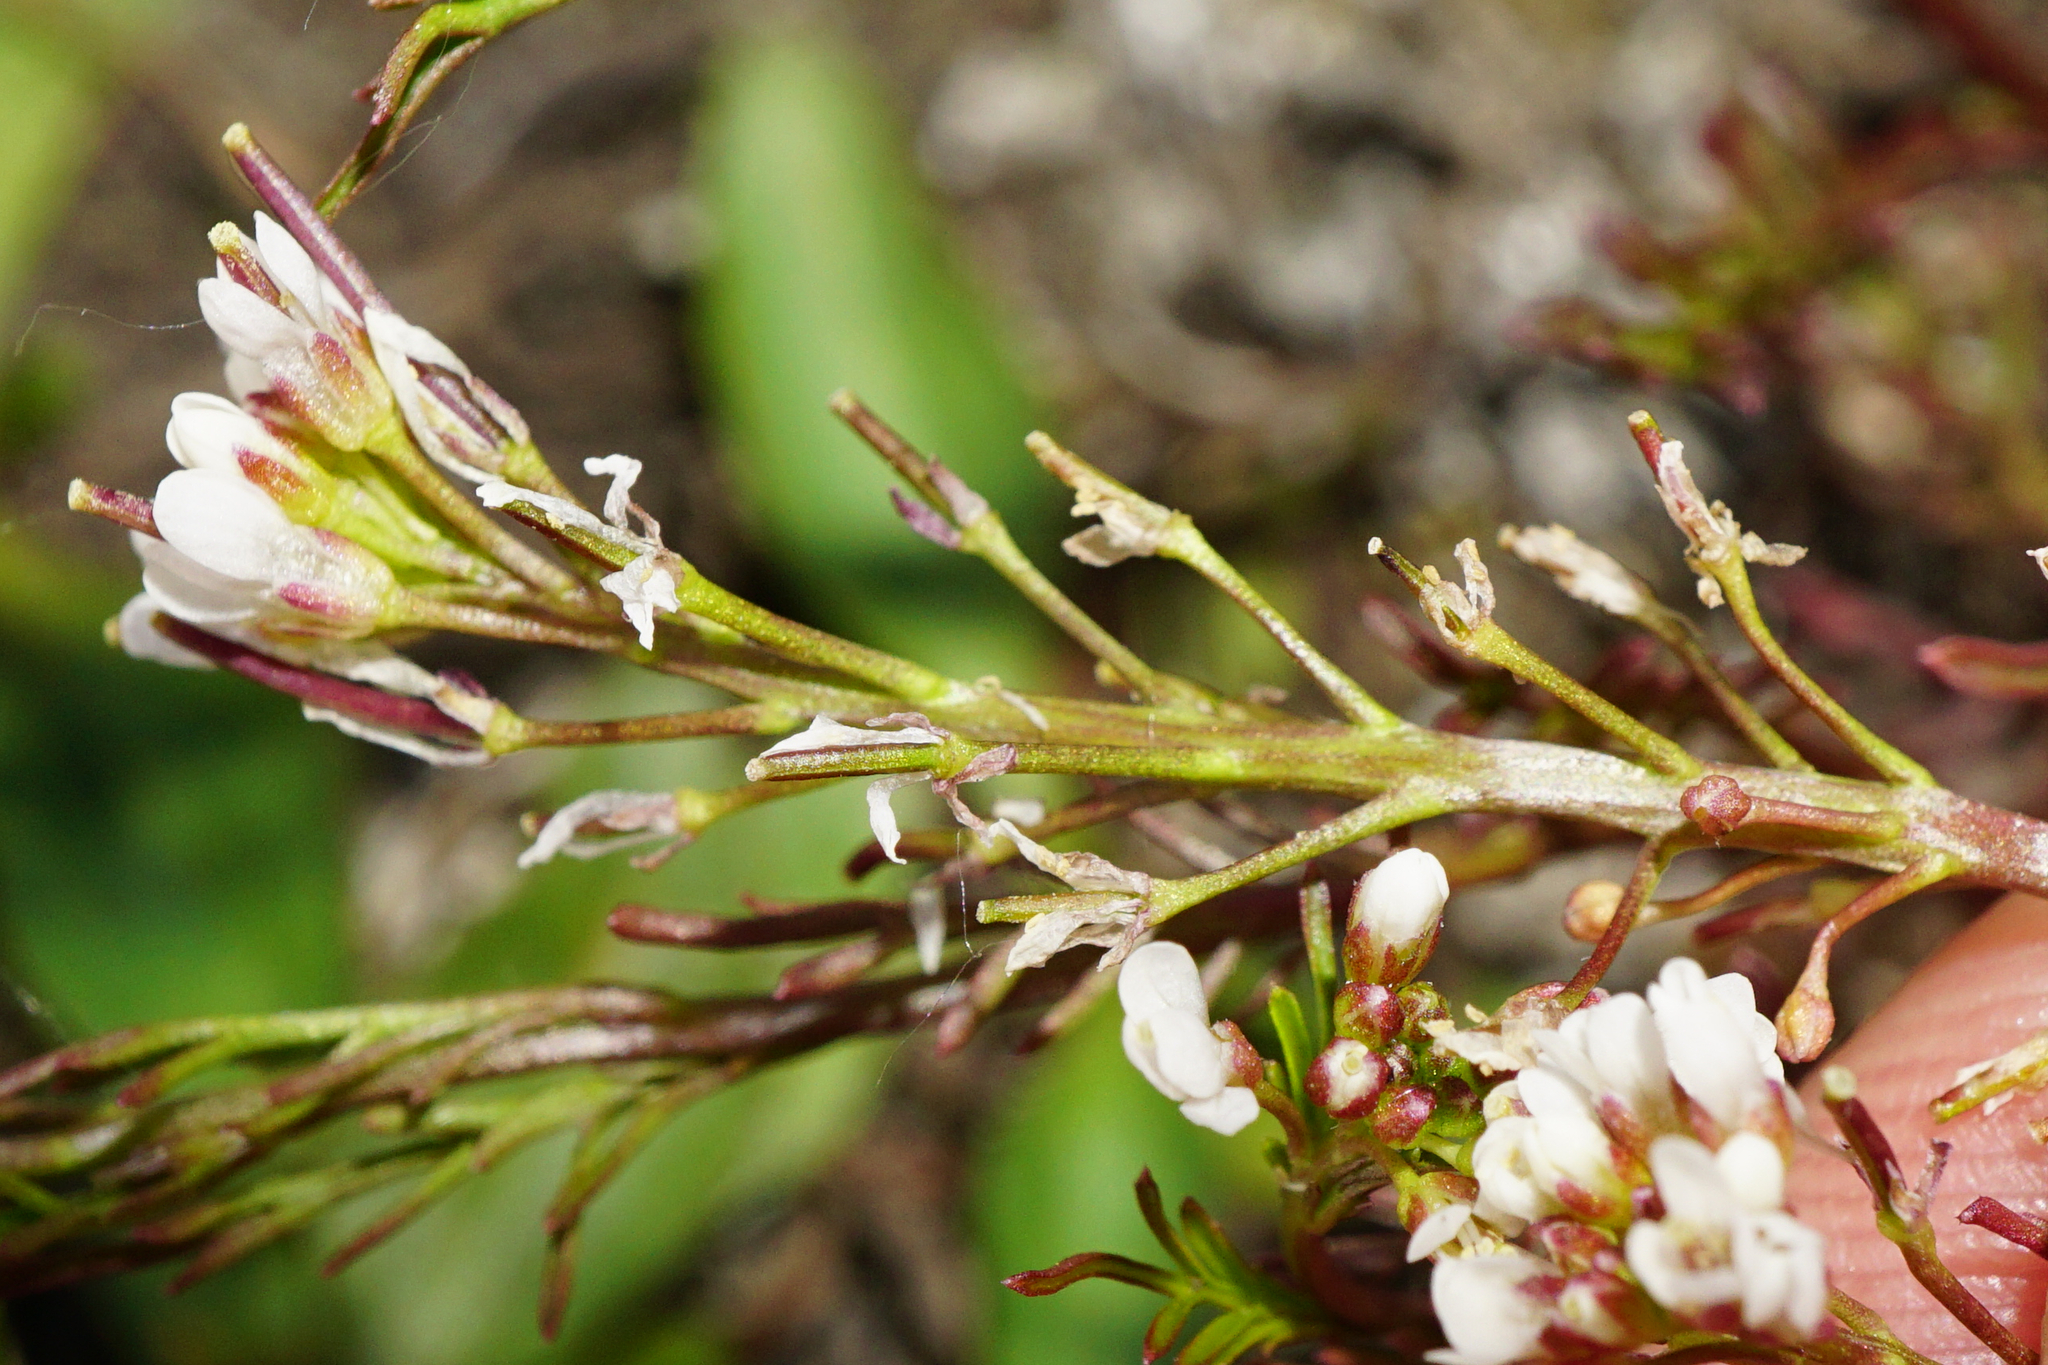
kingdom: Plantae
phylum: Tracheophyta
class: Magnoliopsida
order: Brassicales
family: Brassicaceae
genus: Cardamine
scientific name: Cardamine parviflora
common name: Sand bittercress
